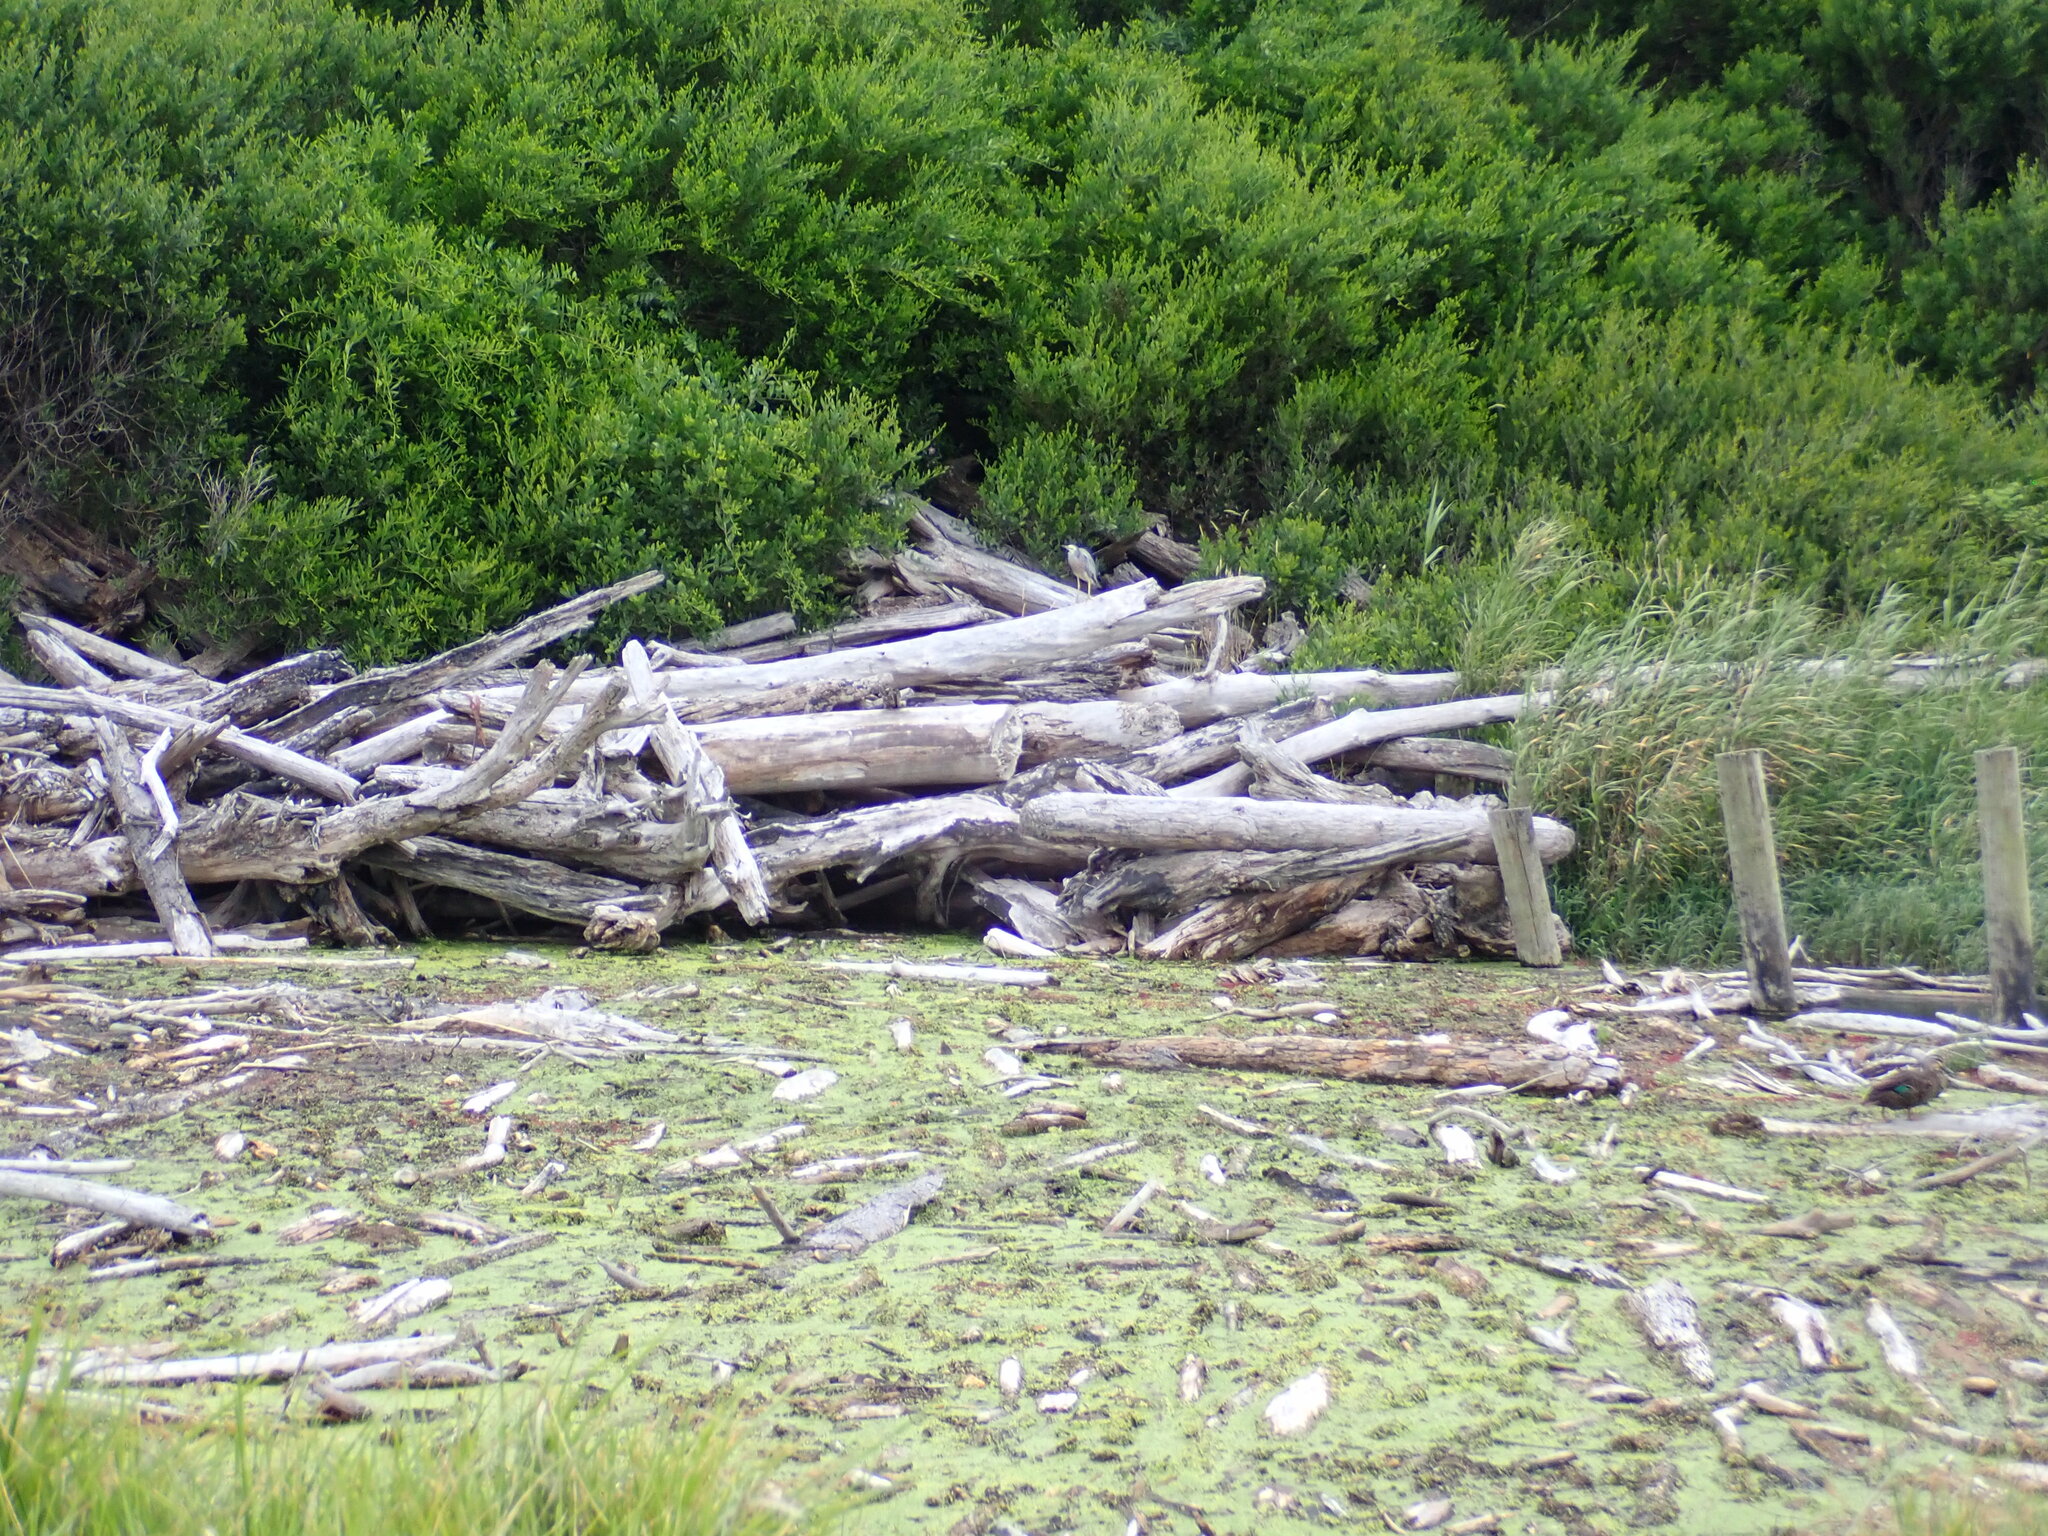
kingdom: Animalia
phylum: Chordata
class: Aves
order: Pelecaniformes
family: Ardeidae
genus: Egretta
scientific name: Egretta novaehollandiae
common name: White-faced heron
